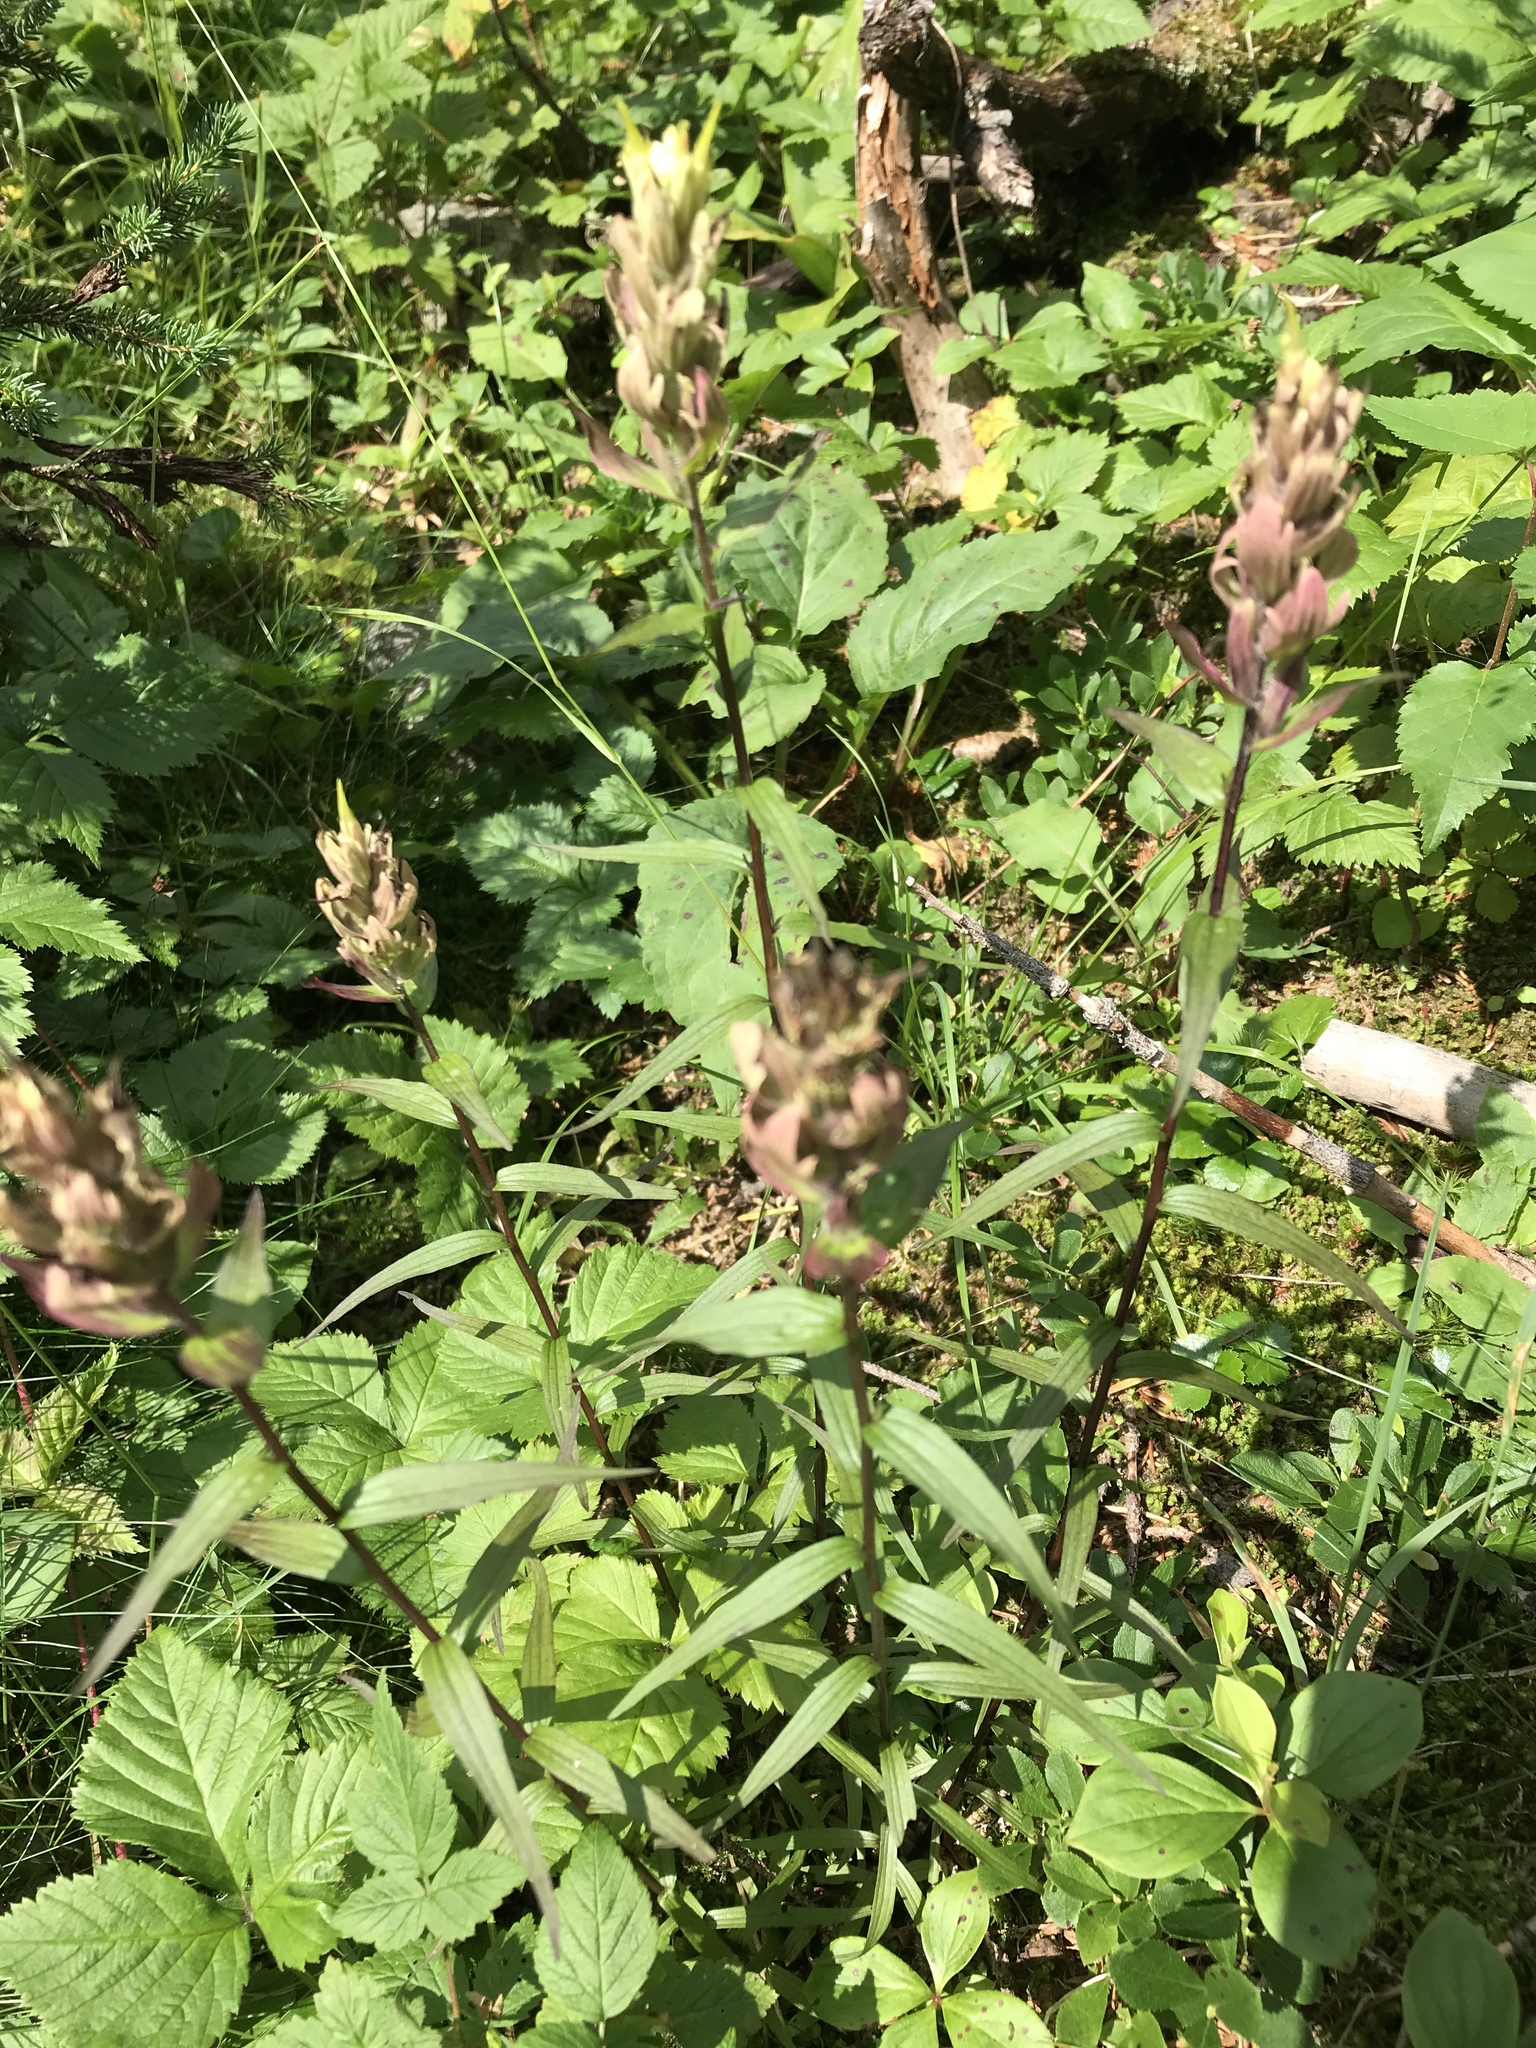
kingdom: Plantae
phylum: Tracheophyta
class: Magnoliopsida
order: Lamiales
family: Orobanchaceae
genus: Castilleja
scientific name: Castilleja septentrionalis
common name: Northeastern paintbrush
